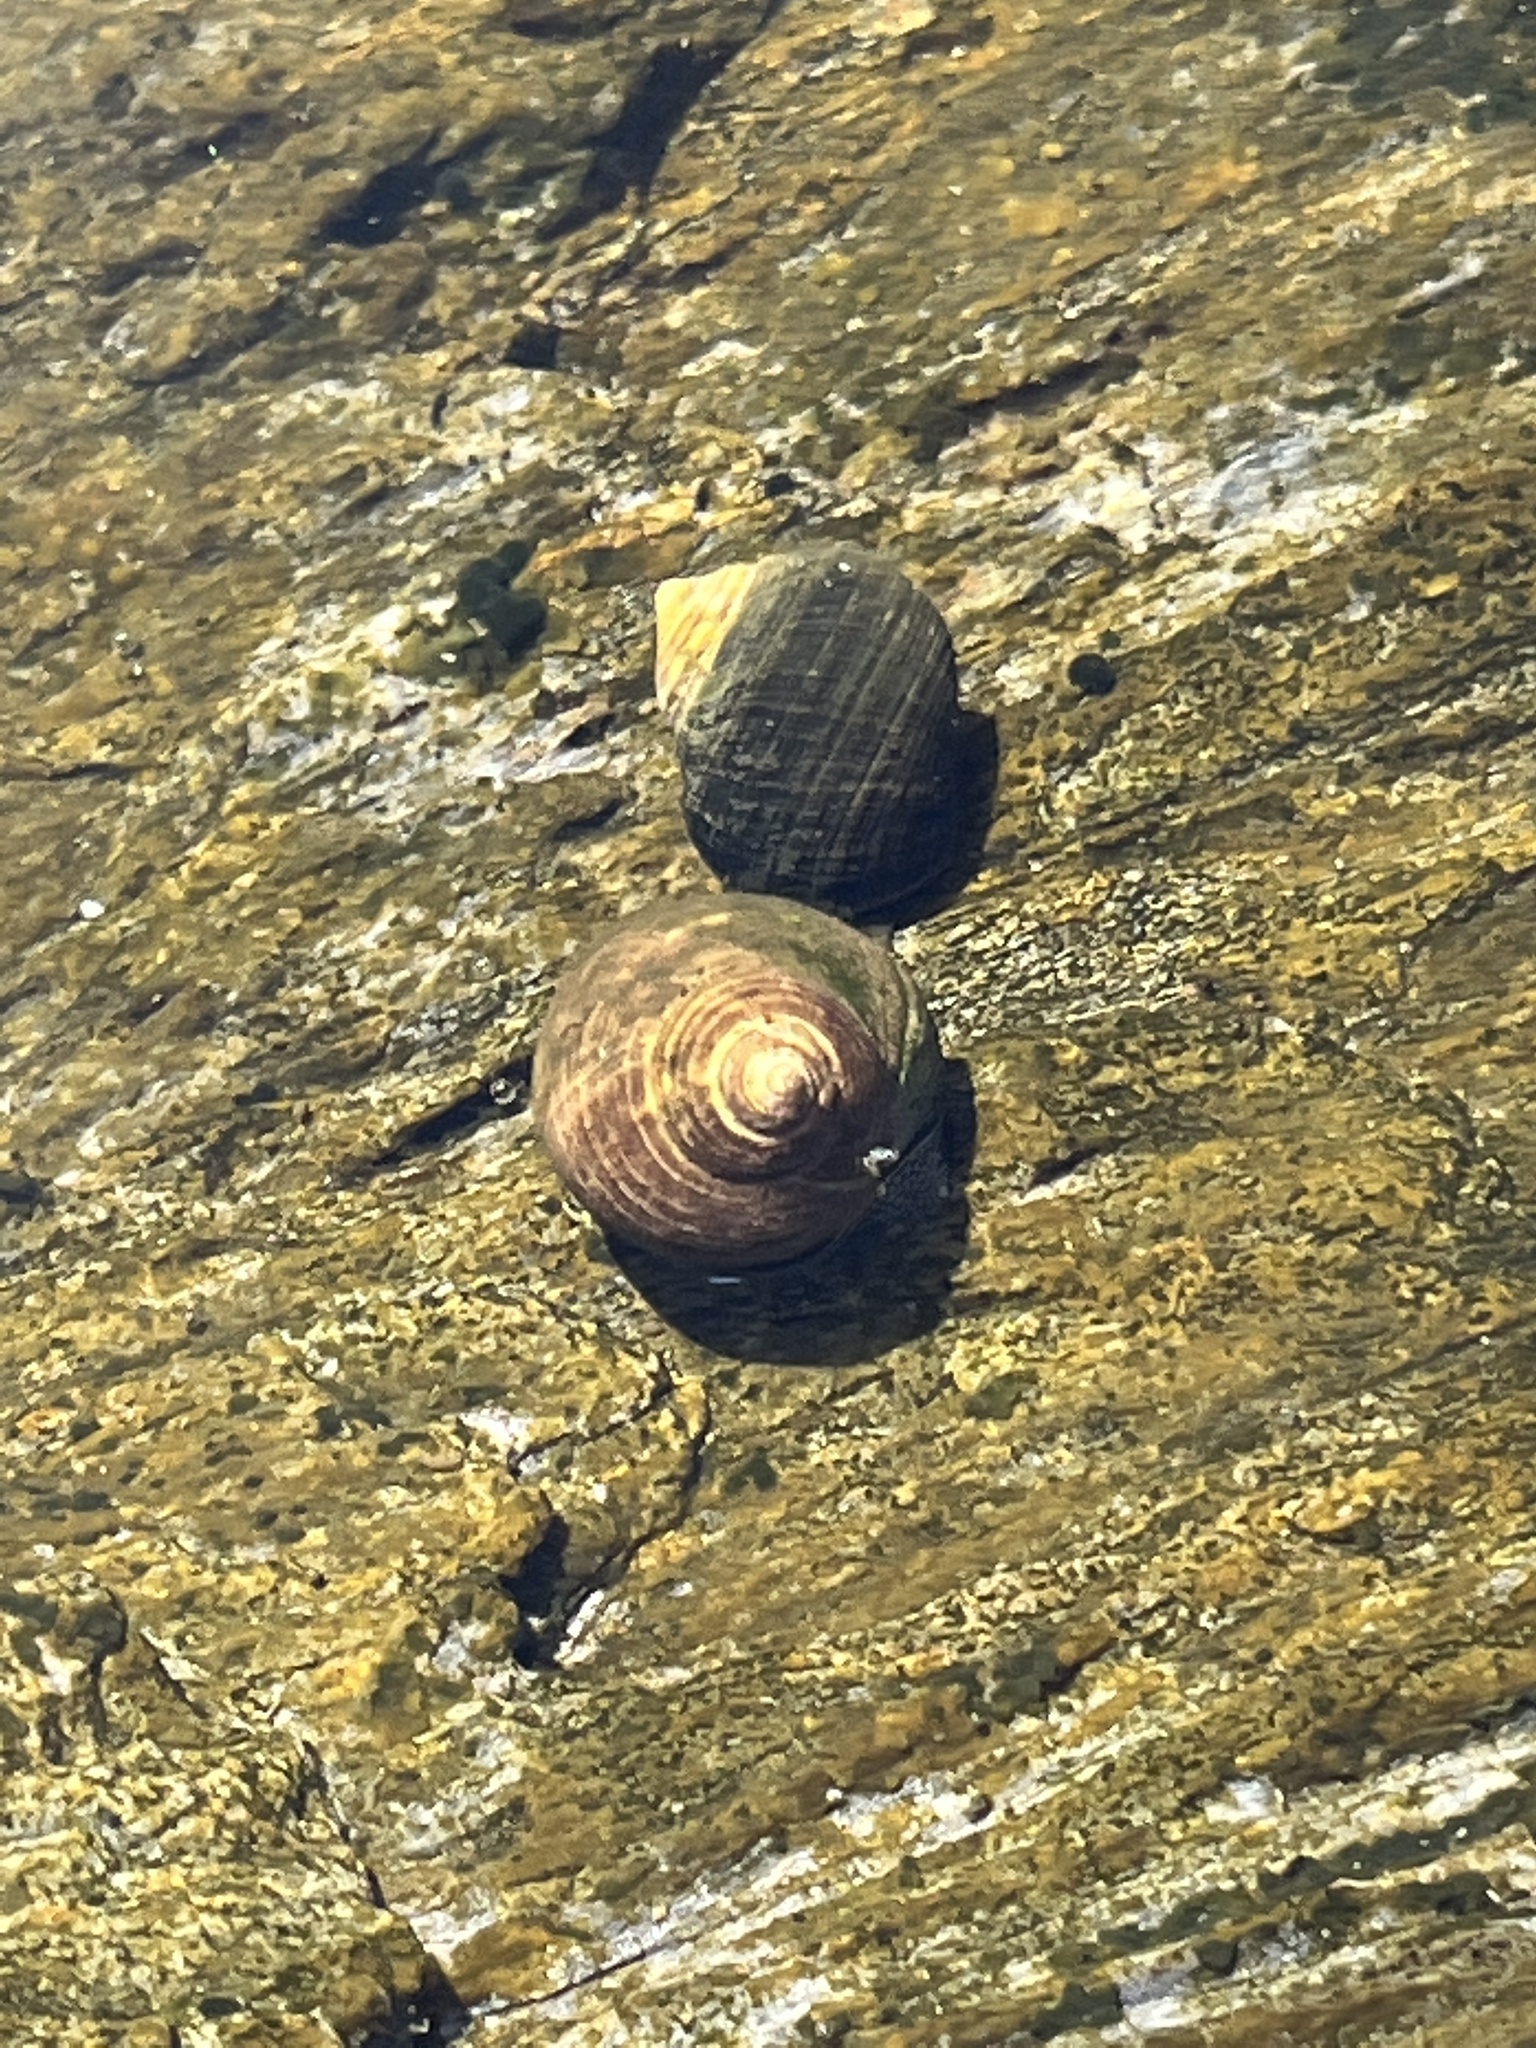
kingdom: Animalia
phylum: Mollusca
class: Gastropoda
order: Littorinimorpha
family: Littorinidae
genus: Littorina
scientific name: Littorina littorea
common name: Common periwinkle
